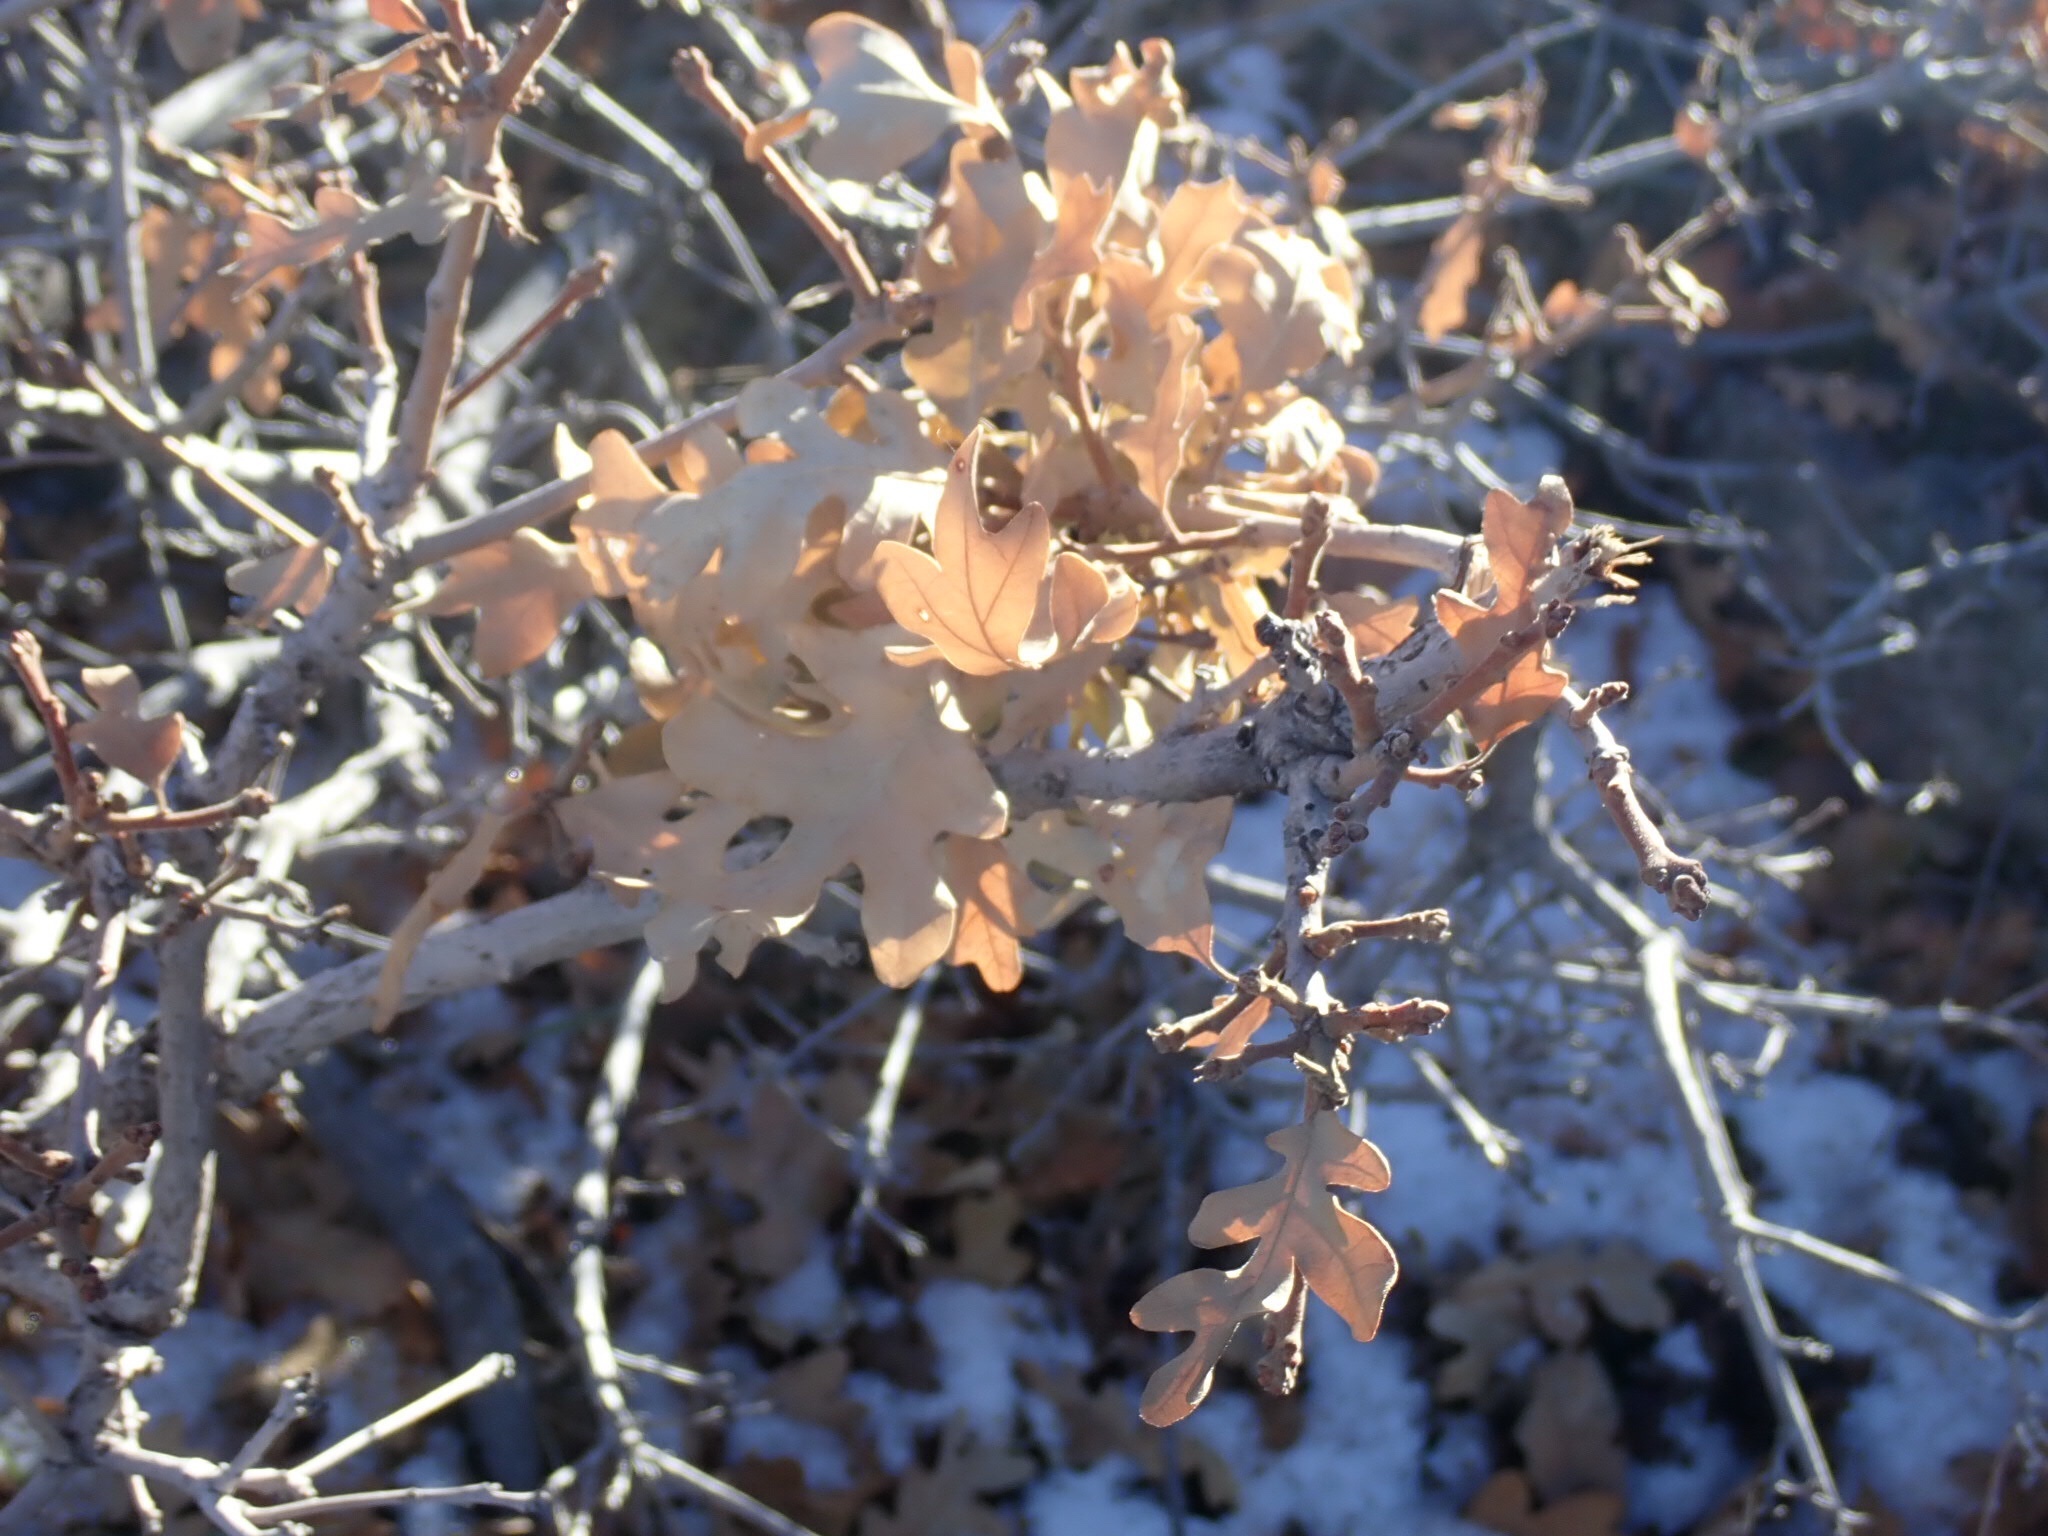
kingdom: Plantae
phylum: Tracheophyta
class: Magnoliopsida
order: Fagales
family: Fagaceae
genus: Quercus
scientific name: Quercus gambelii
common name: Gambel oak
